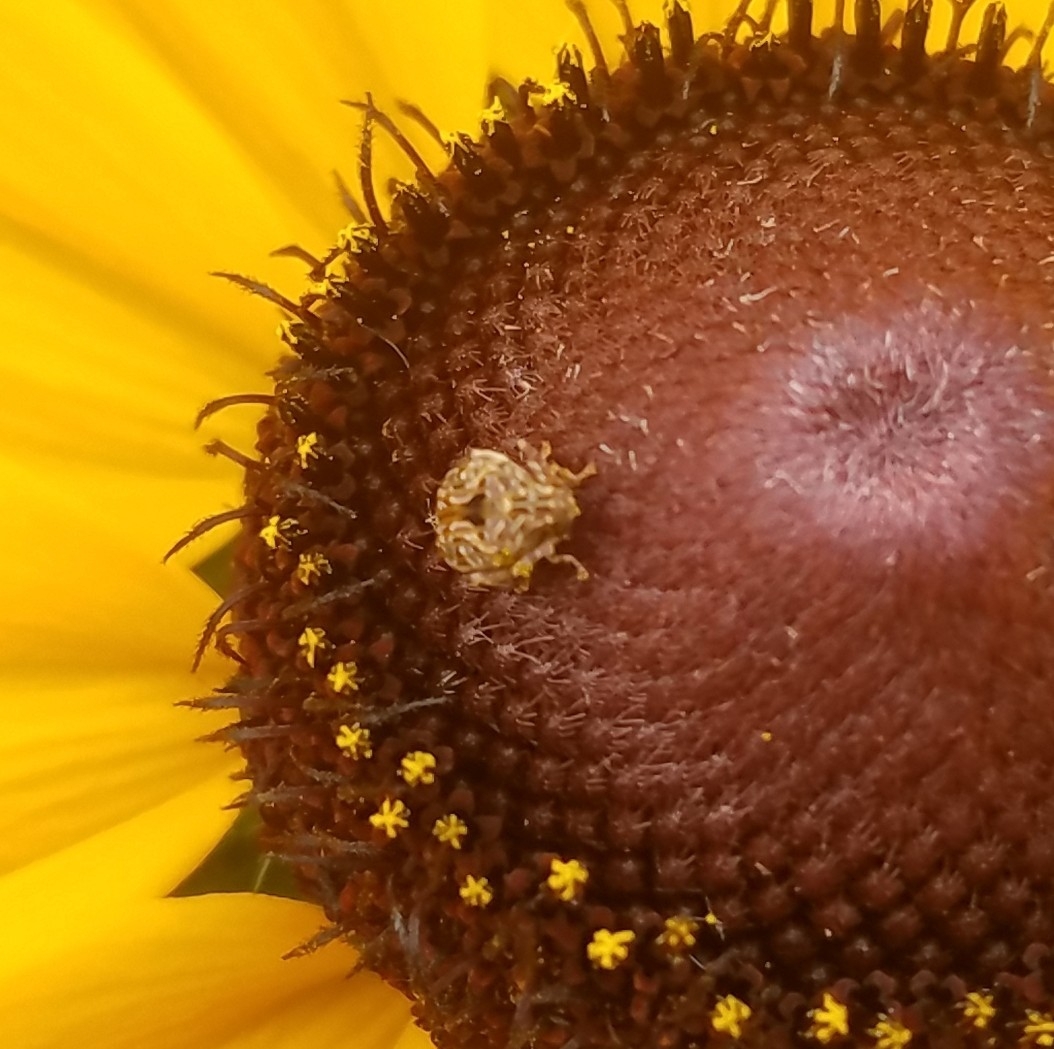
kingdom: Animalia
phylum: Arthropoda
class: Insecta
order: Coleoptera
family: Chrysomelidae
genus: Gibbobruchus
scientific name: Gibbobruchus mimus
